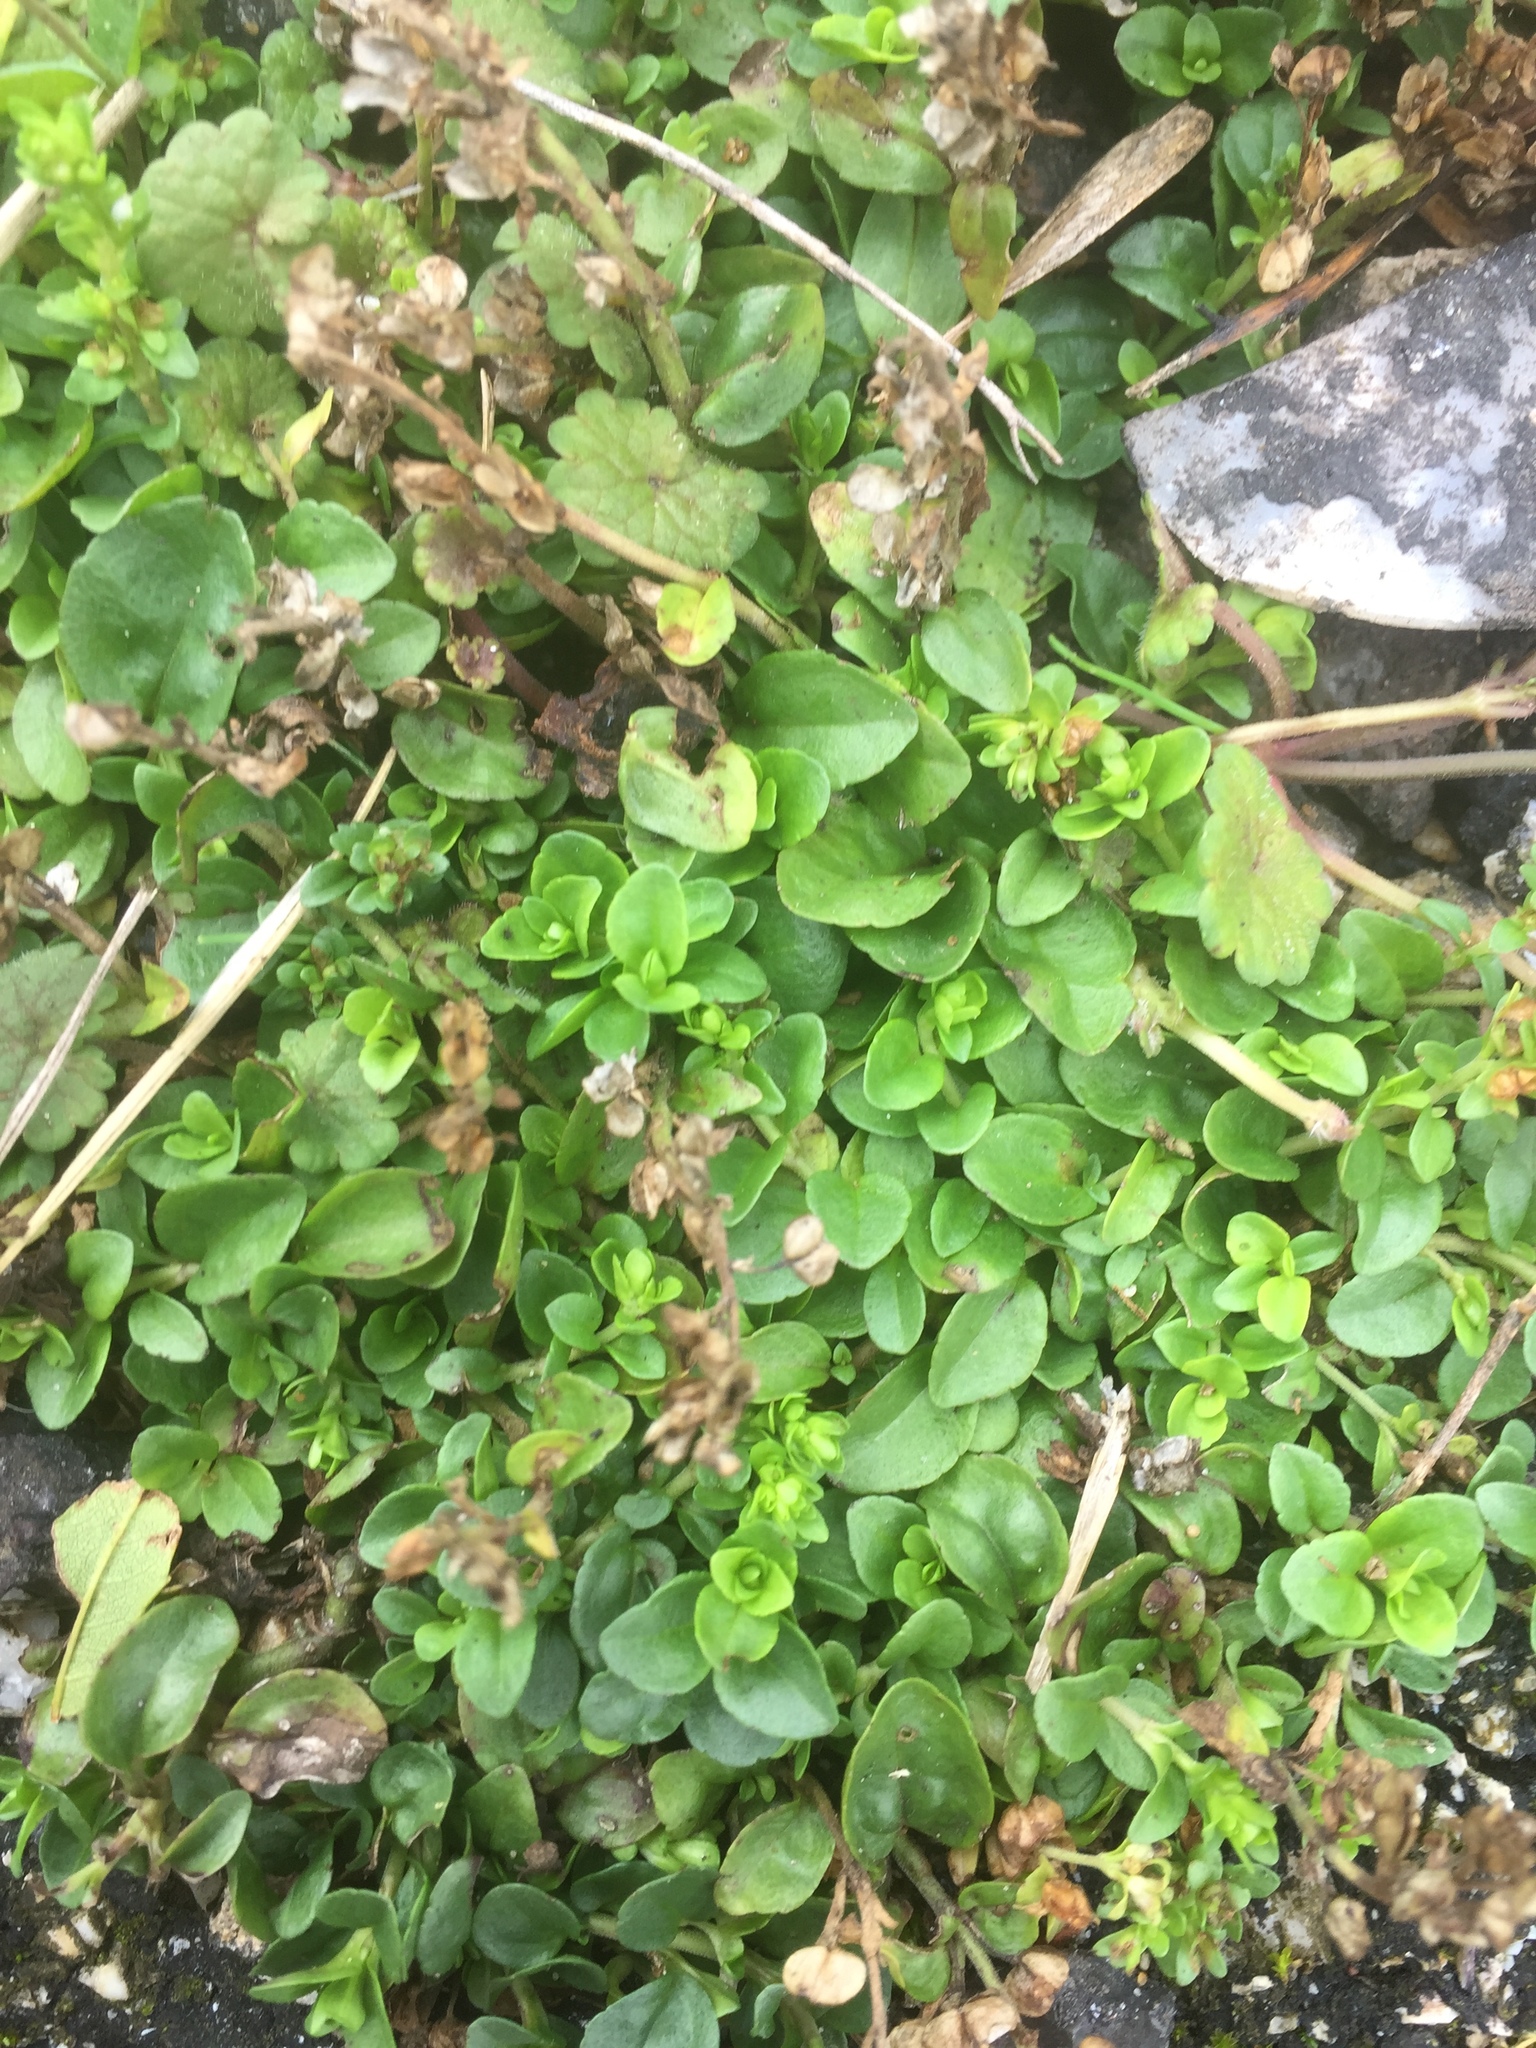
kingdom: Plantae
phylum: Tracheophyta
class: Magnoliopsida
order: Lamiales
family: Plantaginaceae
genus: Veronica
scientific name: Veronica serpyllifolia
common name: Thyme-leaved speedwell
